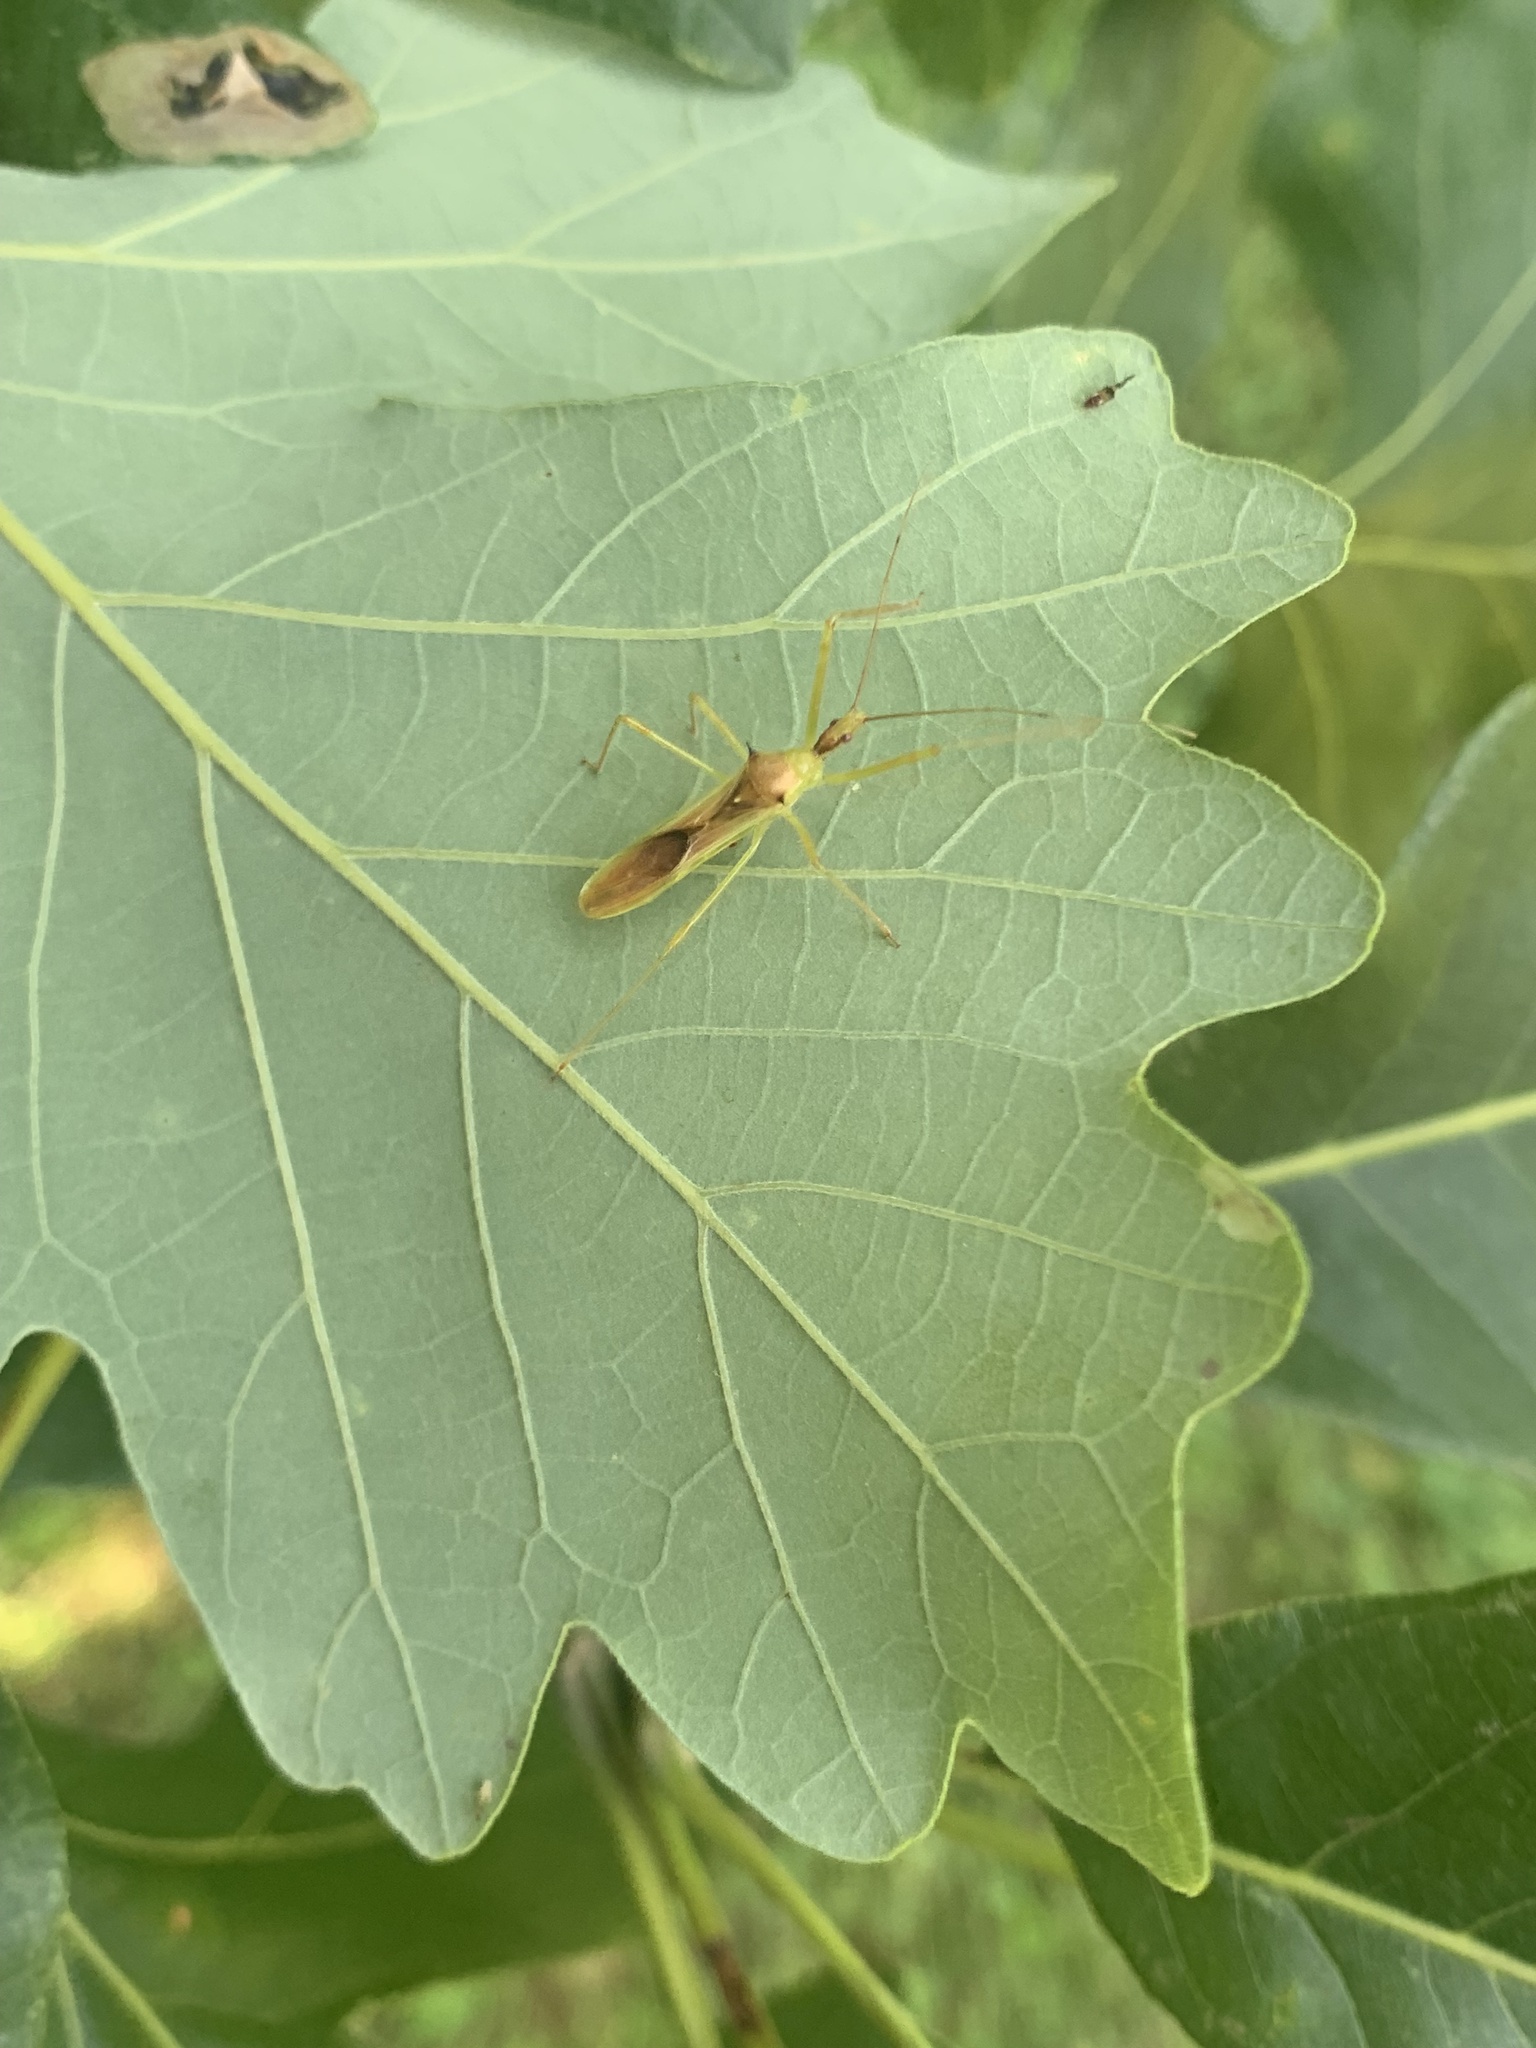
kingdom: Animalia
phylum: Arthropoda
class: Insecta
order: Hemiptera
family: Reduviidae
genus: Zelus
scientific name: Zelus luridus
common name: Pale green assassin bug
